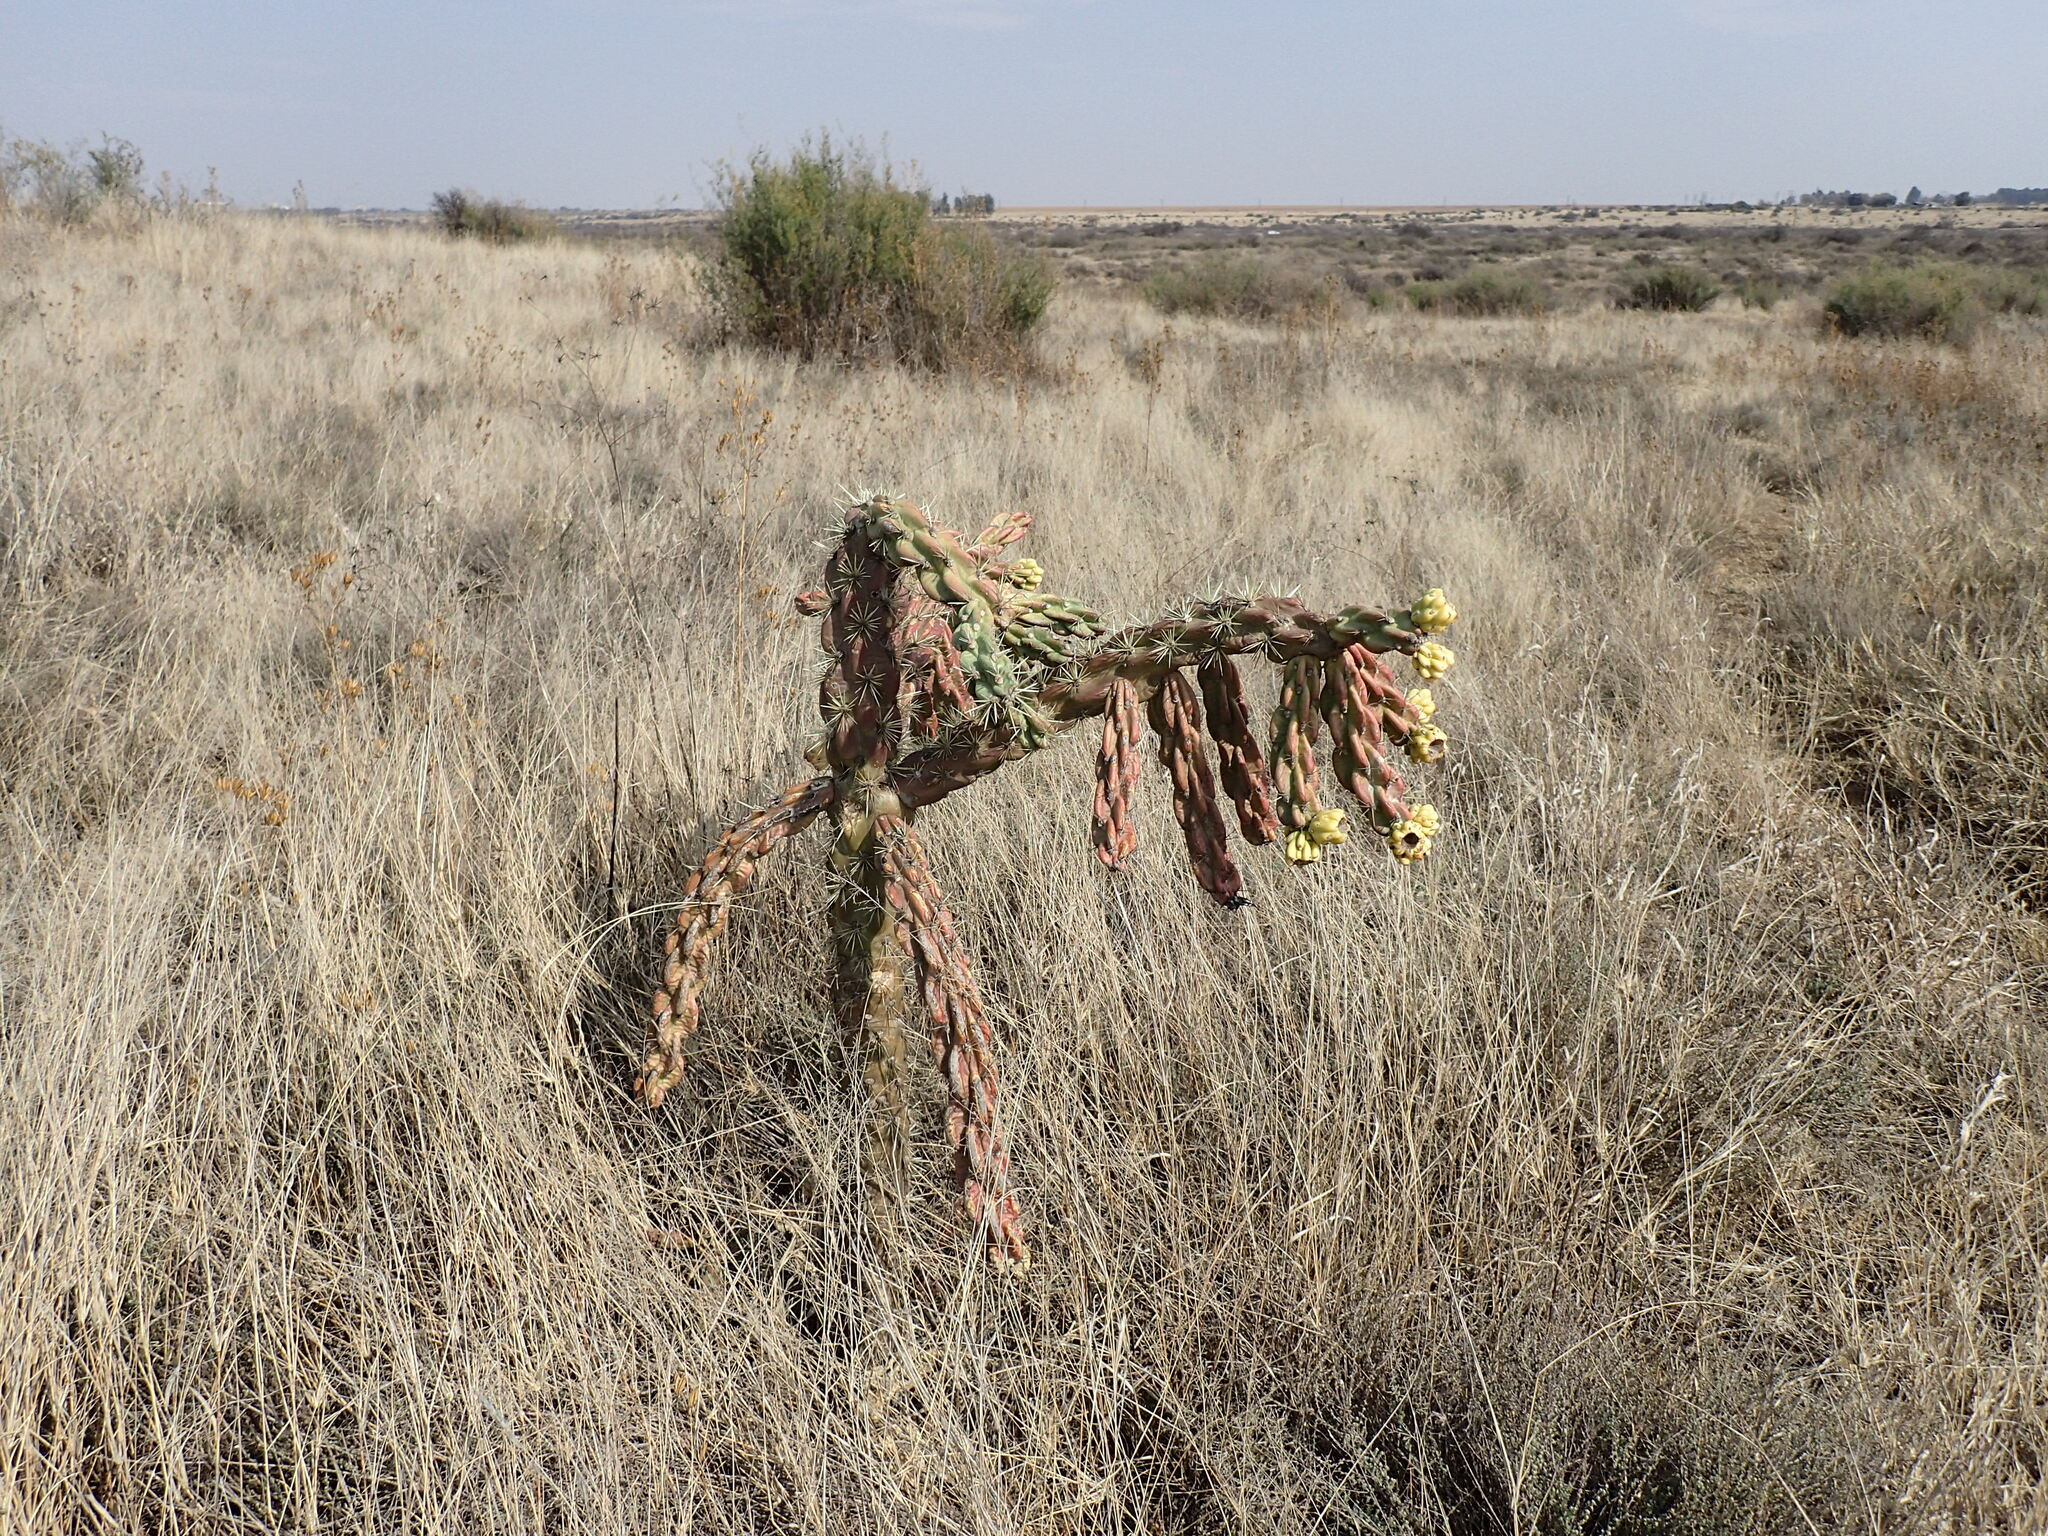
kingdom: Plantae
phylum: Tracheophyta
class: Magnoliopsida
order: Caryophyllales
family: Cactaceae
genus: Cylindropuntia
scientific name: Cylindropuntia imbricata
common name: Candelabrum cactus
